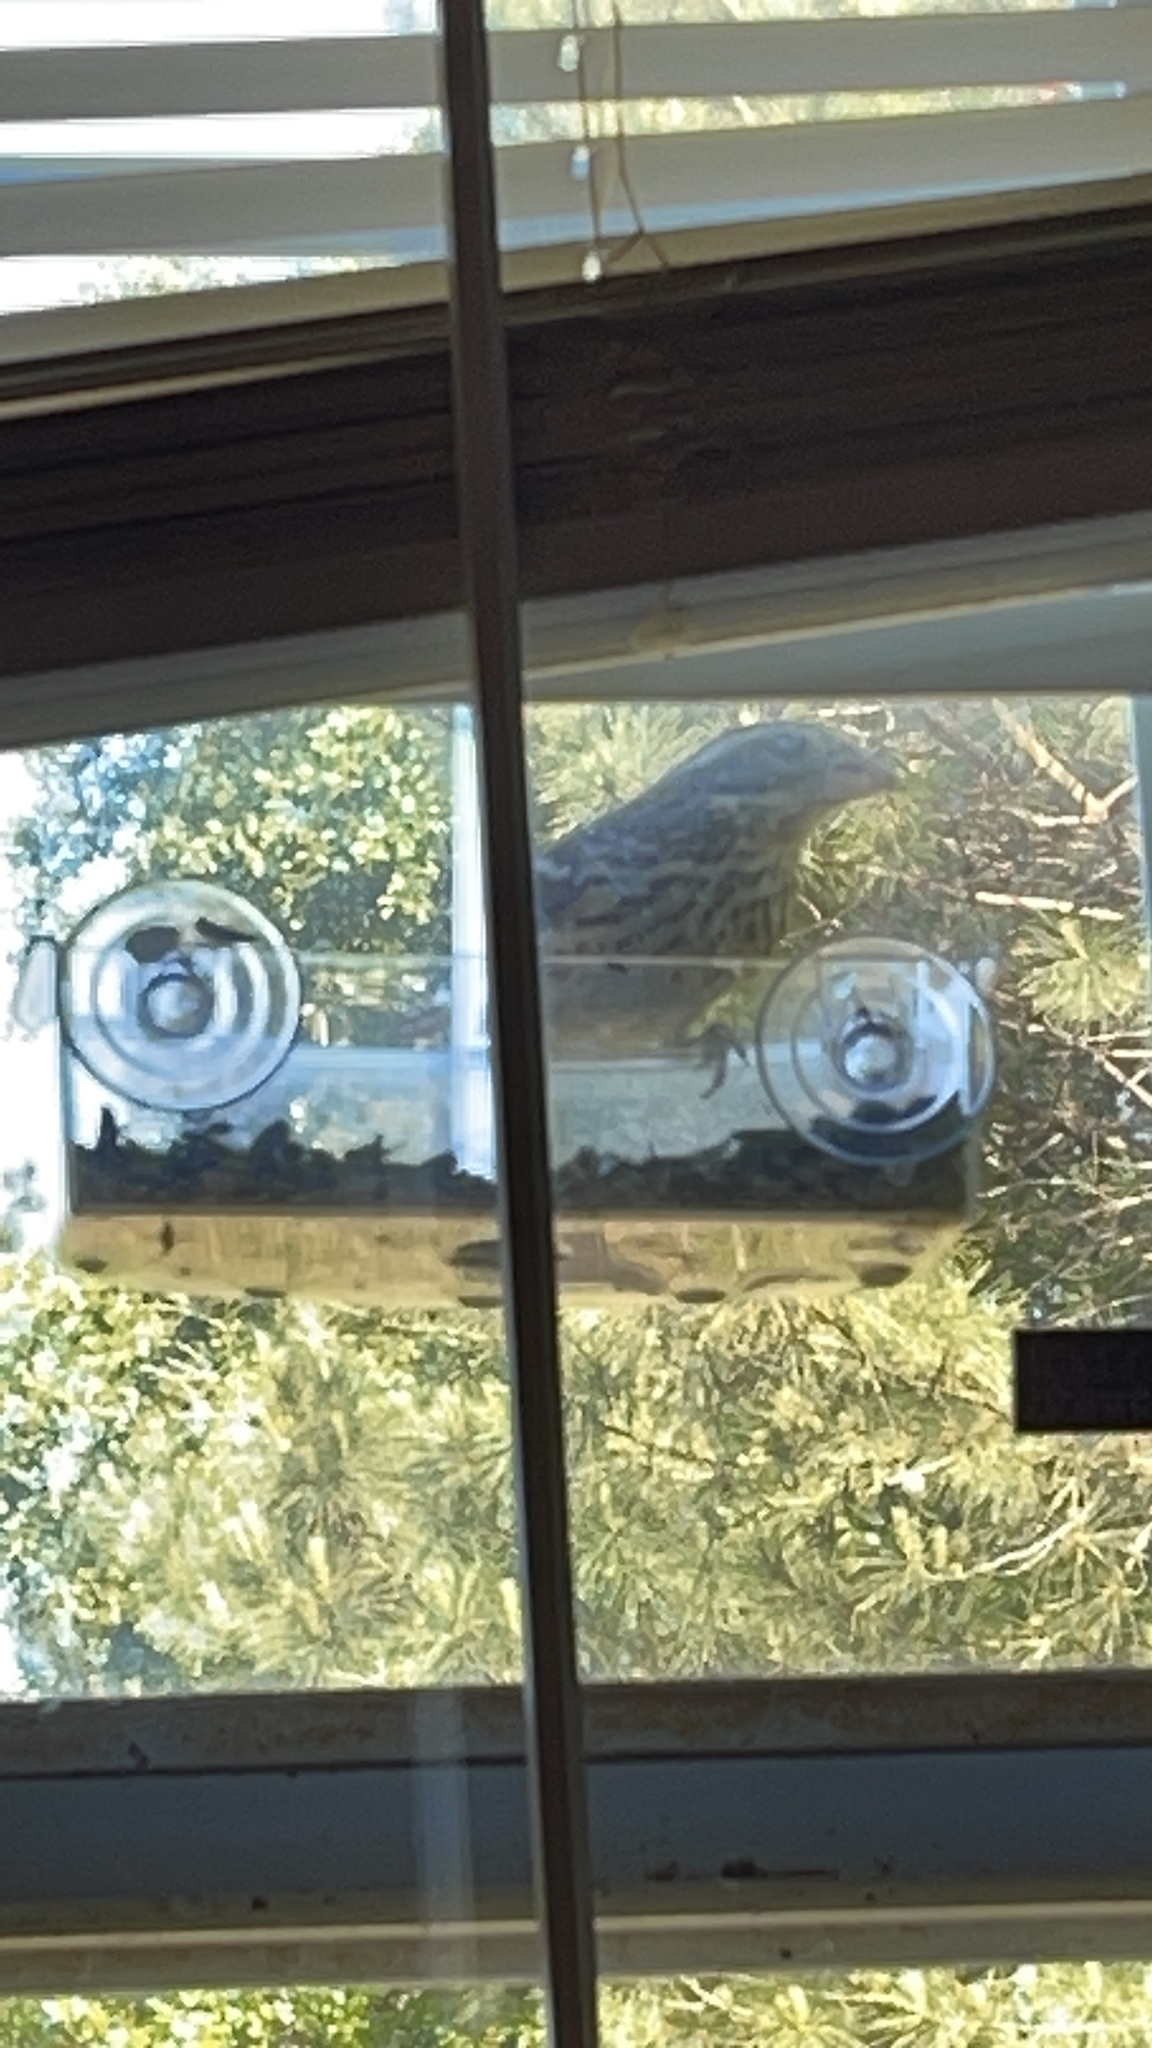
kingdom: Animalia
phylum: Chordata
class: Aves
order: Passeriformes
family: Cardinalidae
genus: Pheucticus
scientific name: Pheucticus ludovicianus
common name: Rose-breasted grosbeak
